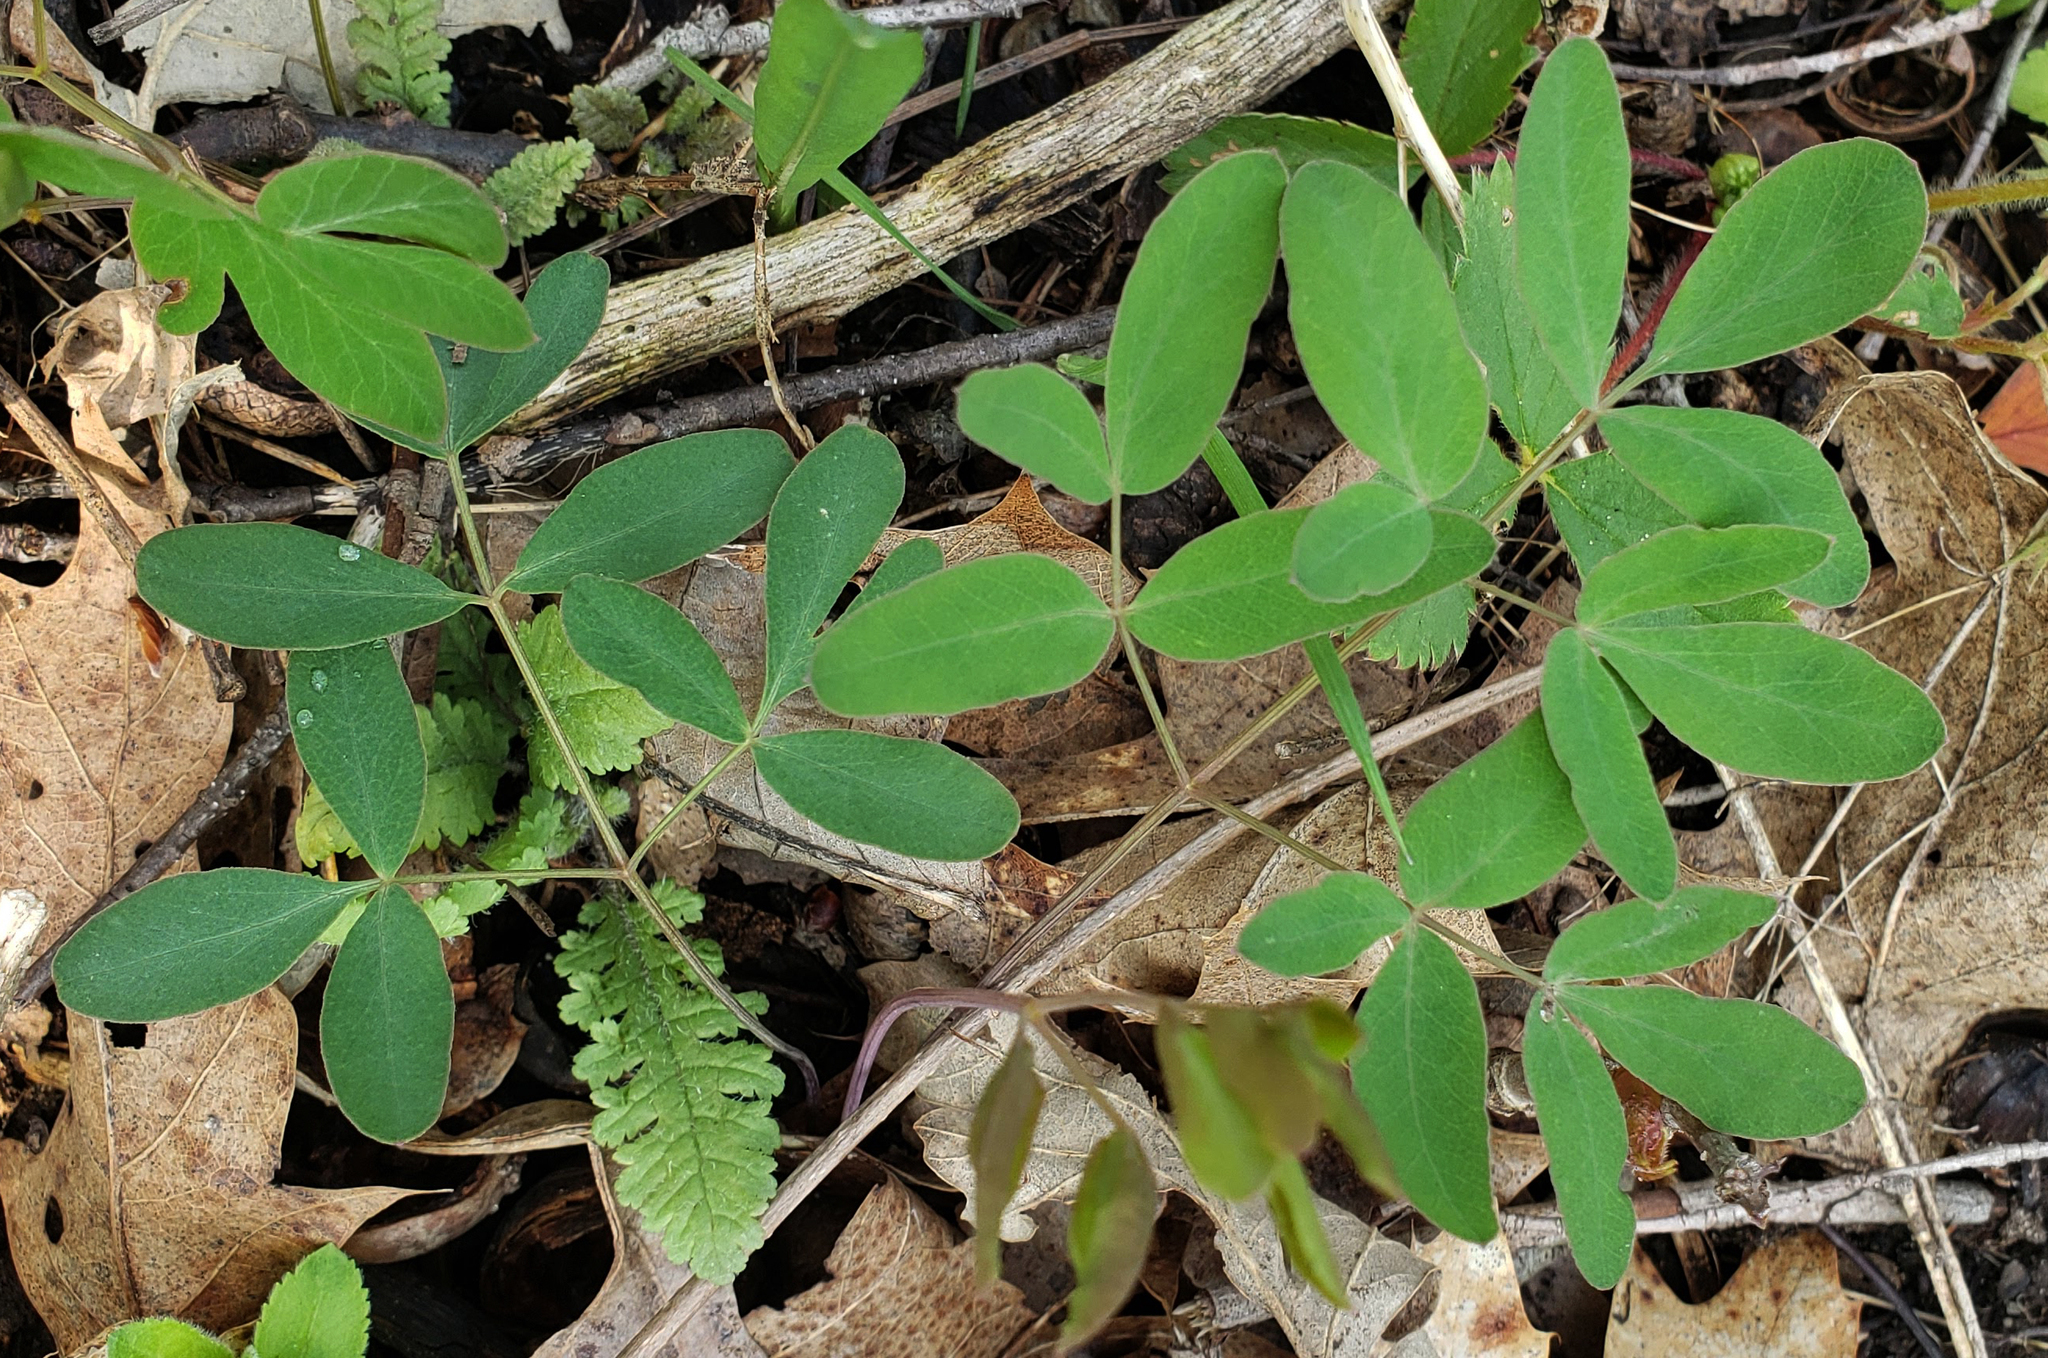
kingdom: Plantae
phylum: Tracheophyta
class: Magnoliopsida
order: Apiales
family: Apiaceae
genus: Taenidia
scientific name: Taenidia integerrima
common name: Golden alexander
